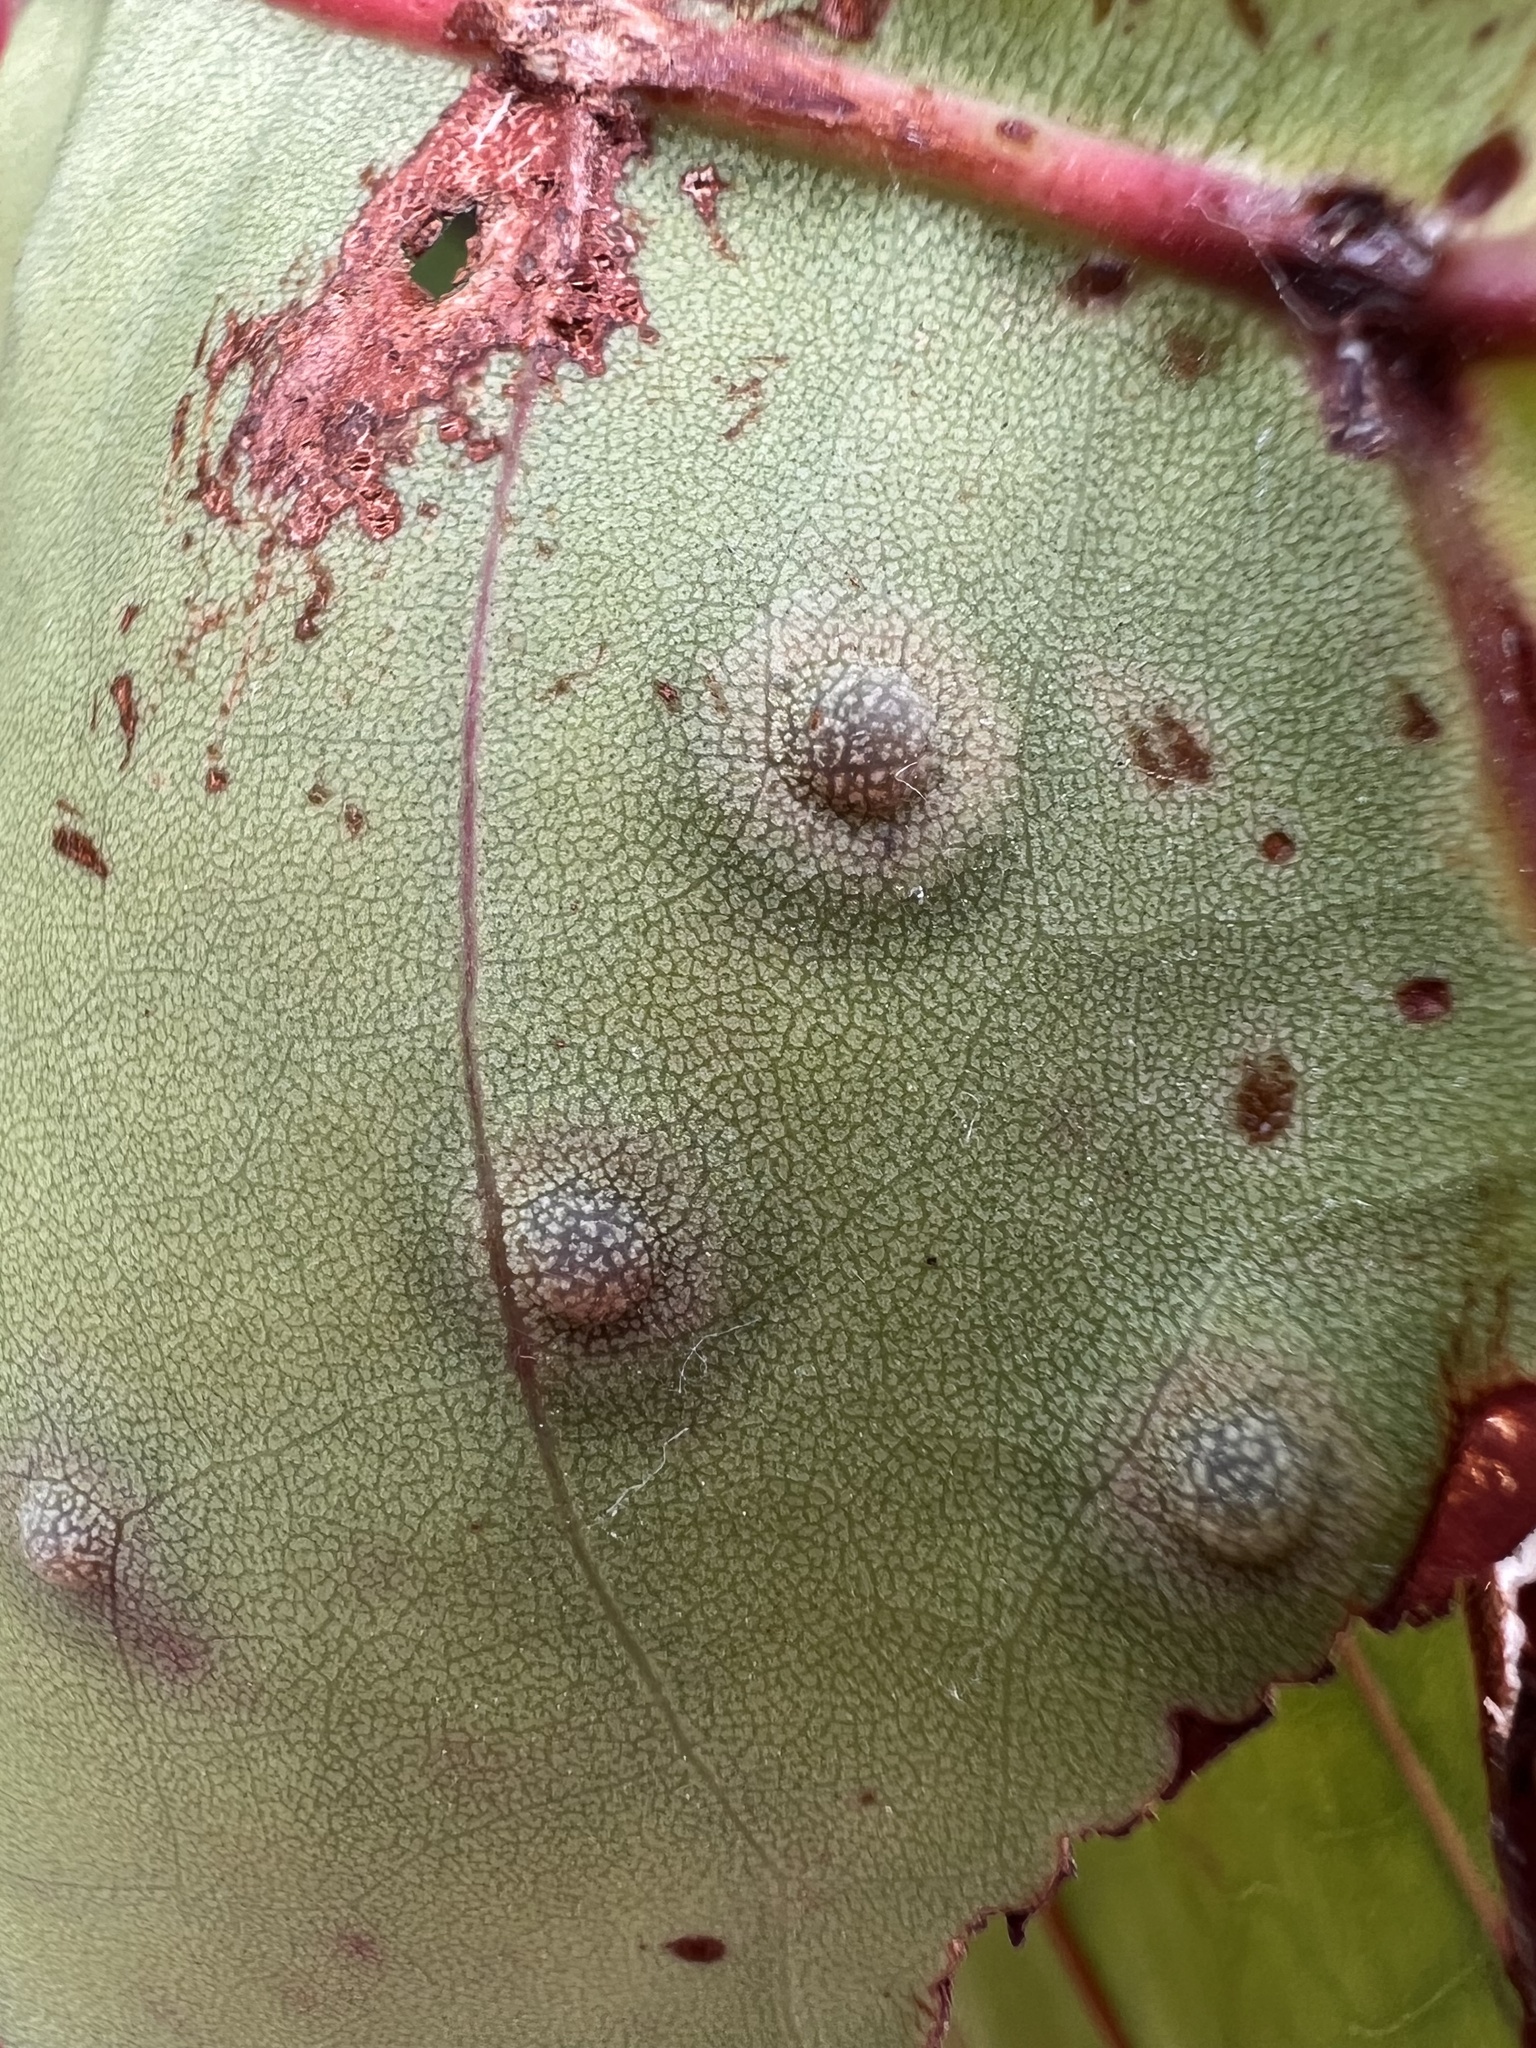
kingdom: Animalia
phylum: Arthropoda
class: Insecta
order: Diptera
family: Cecidomyiidae
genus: Ctenodactylomyia
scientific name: Ctenodactylomyia watsoni
